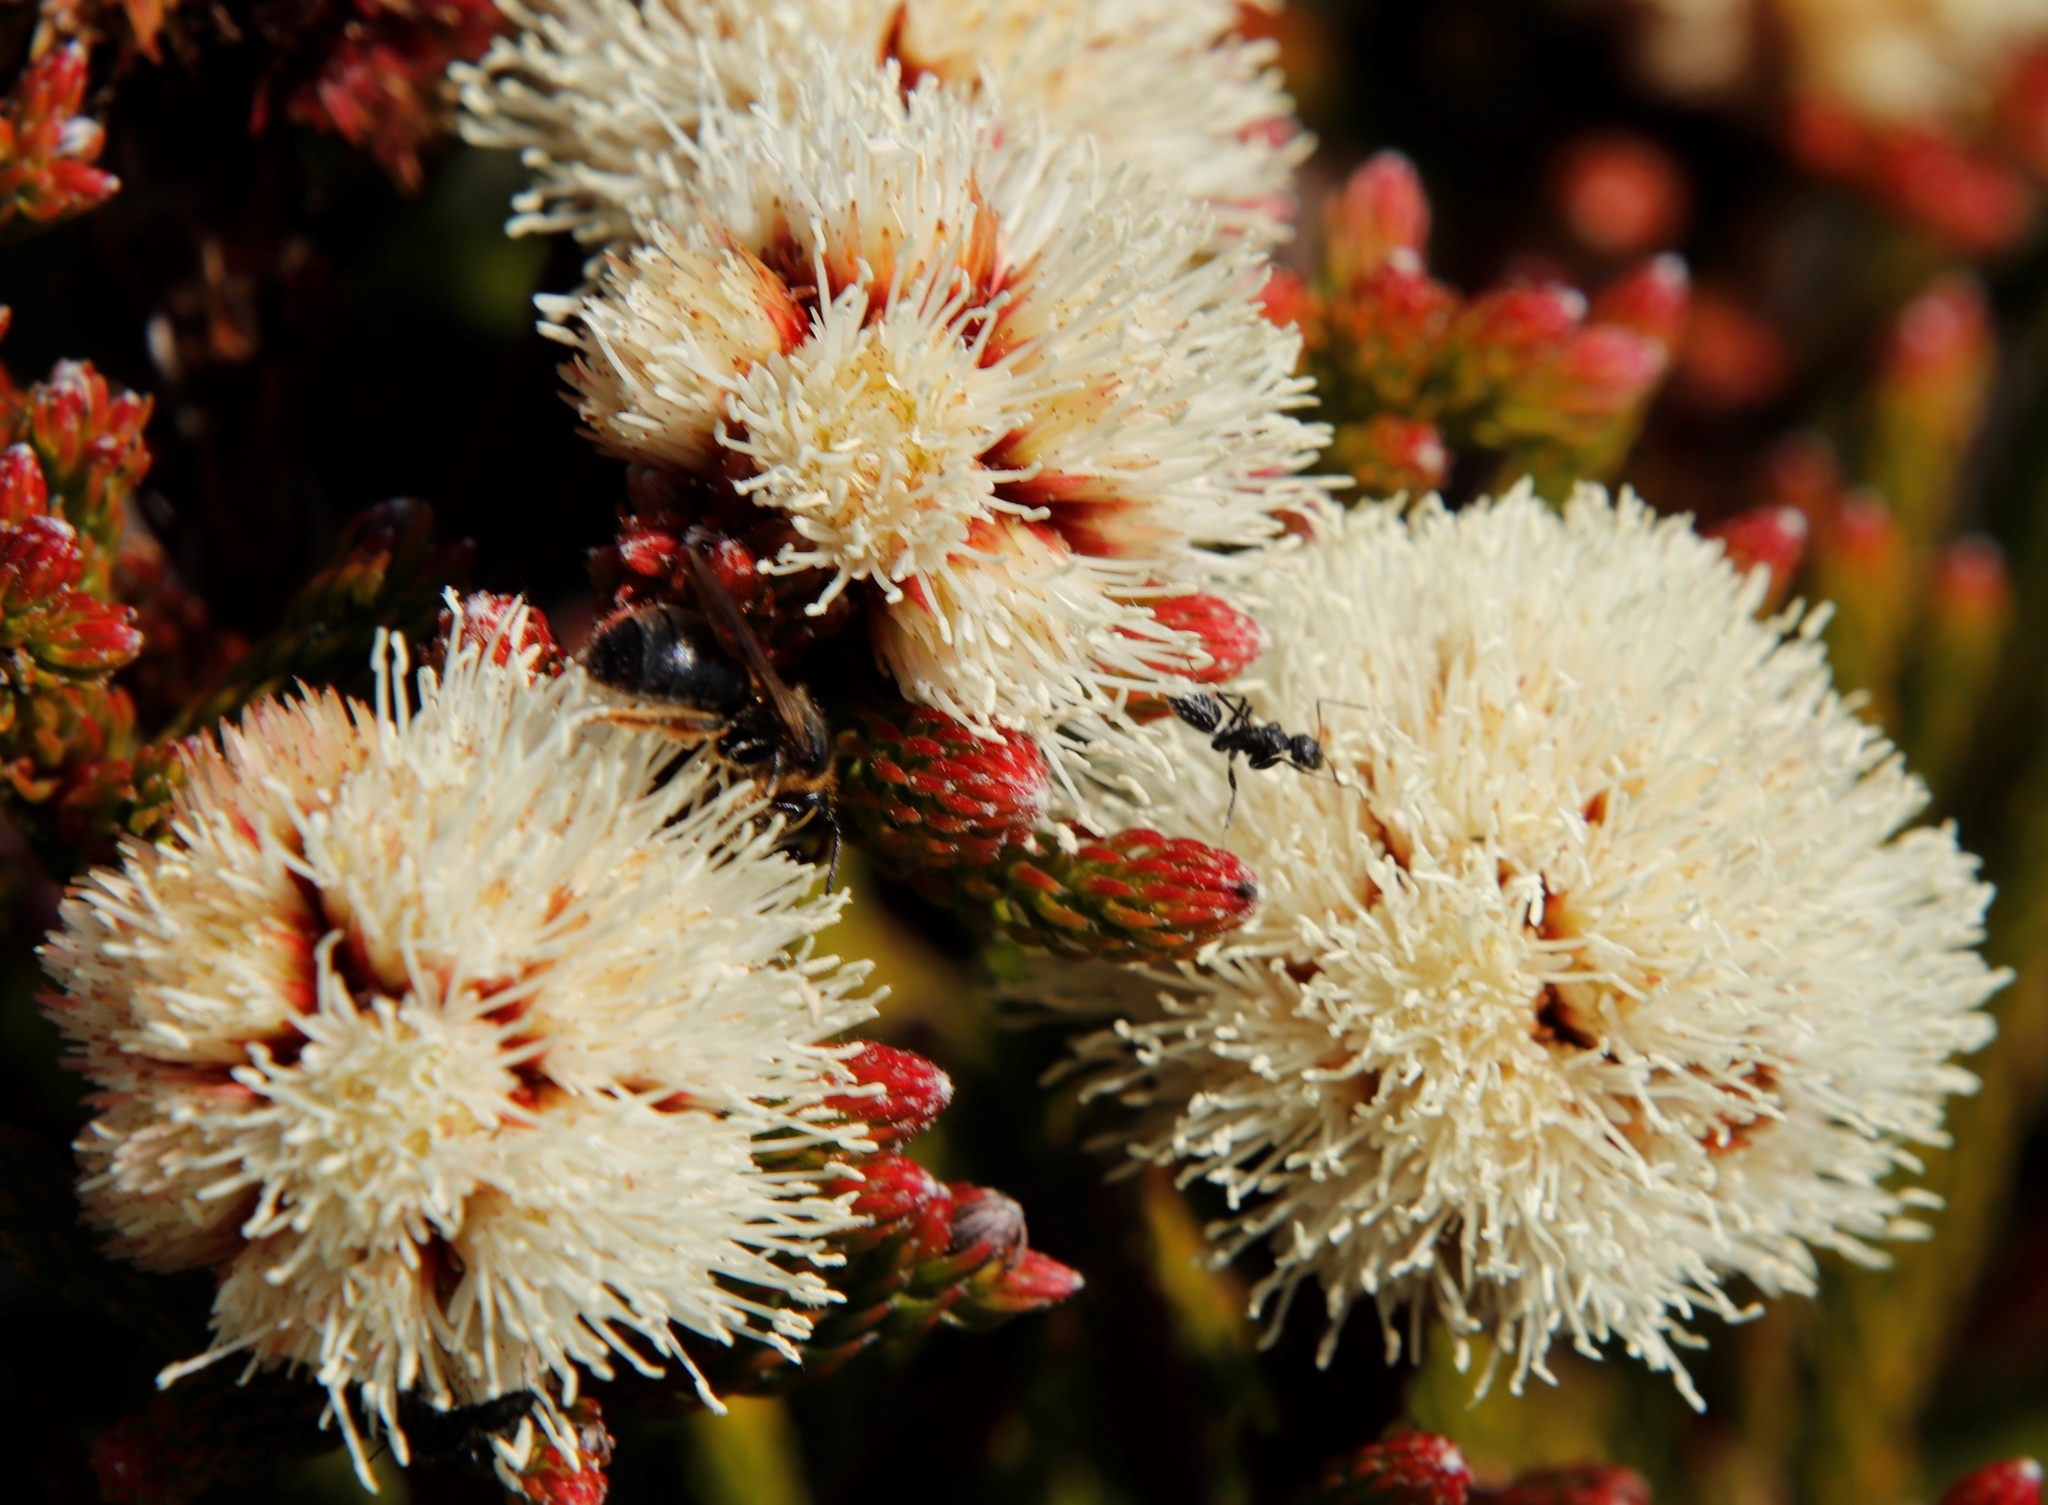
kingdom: Animalia
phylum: Arthropoda
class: Insecta
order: Hymenoptera
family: Formicidae
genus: Camponotus
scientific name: Camponotus niveosetosus
